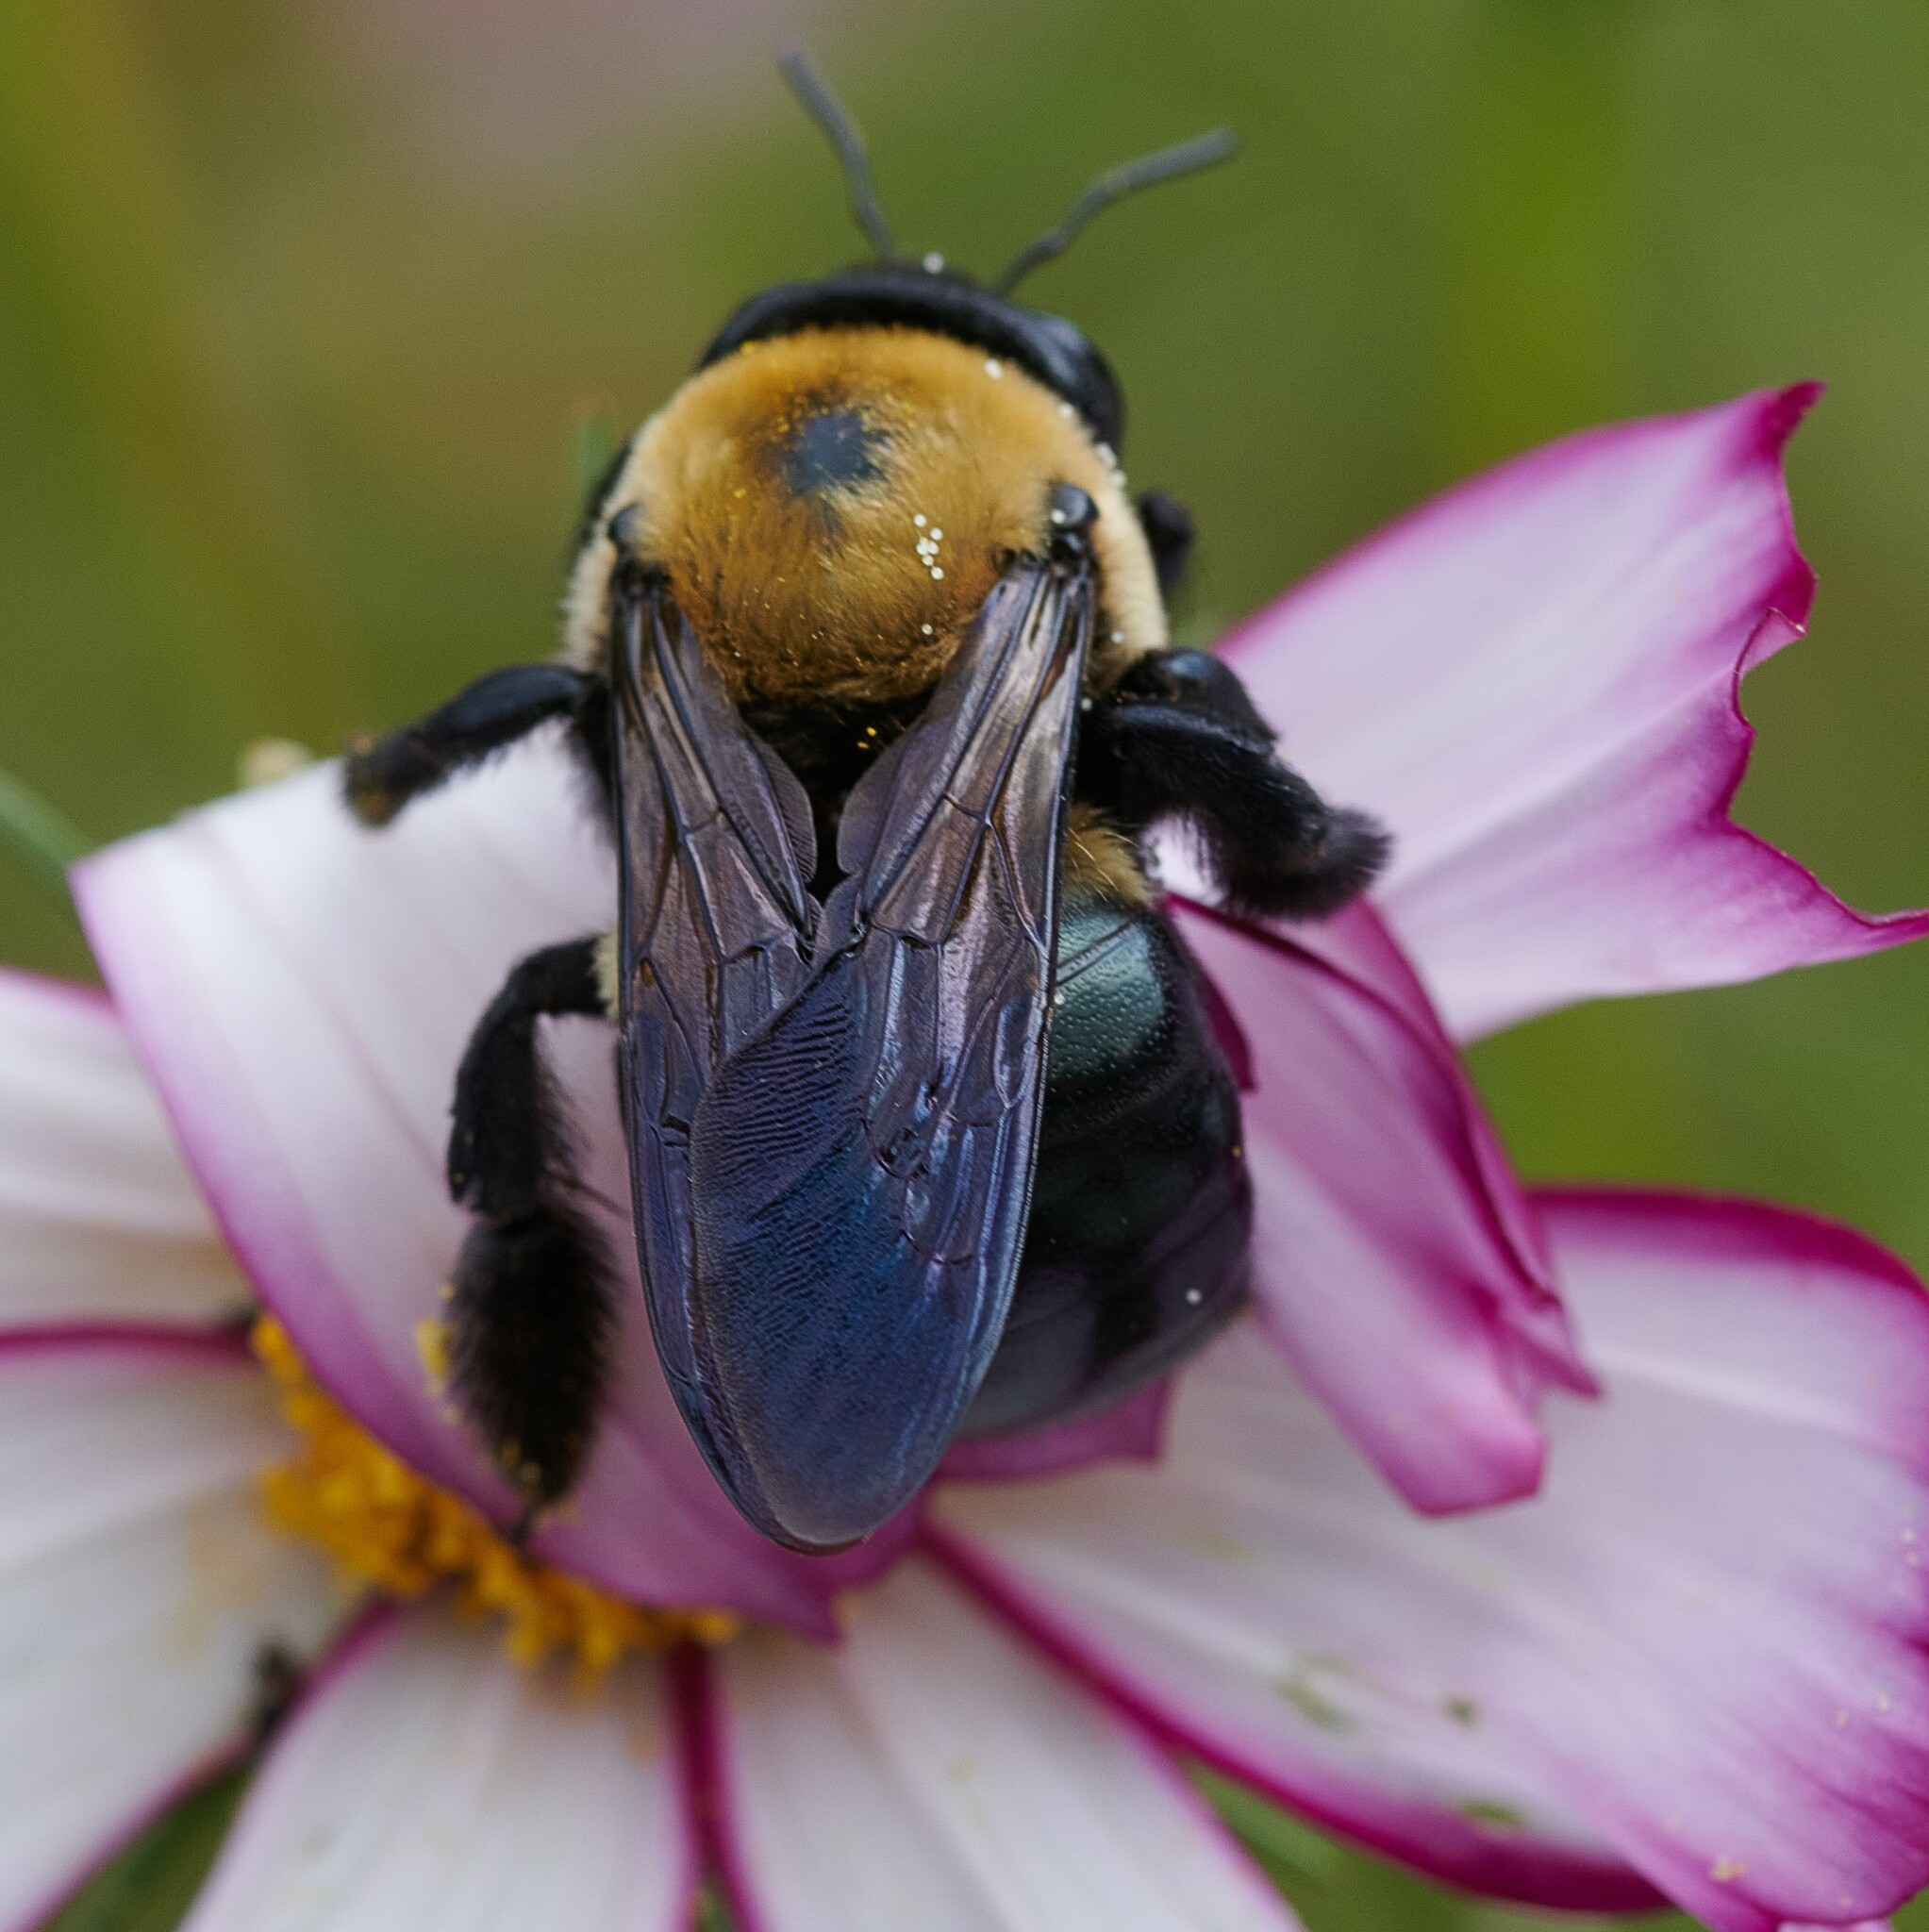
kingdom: Animalia
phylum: Arthropoda
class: Insecta
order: Hymenoptera
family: Apidae
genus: Xylocopa
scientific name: Xylocopa virginica
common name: Carpenter bee
